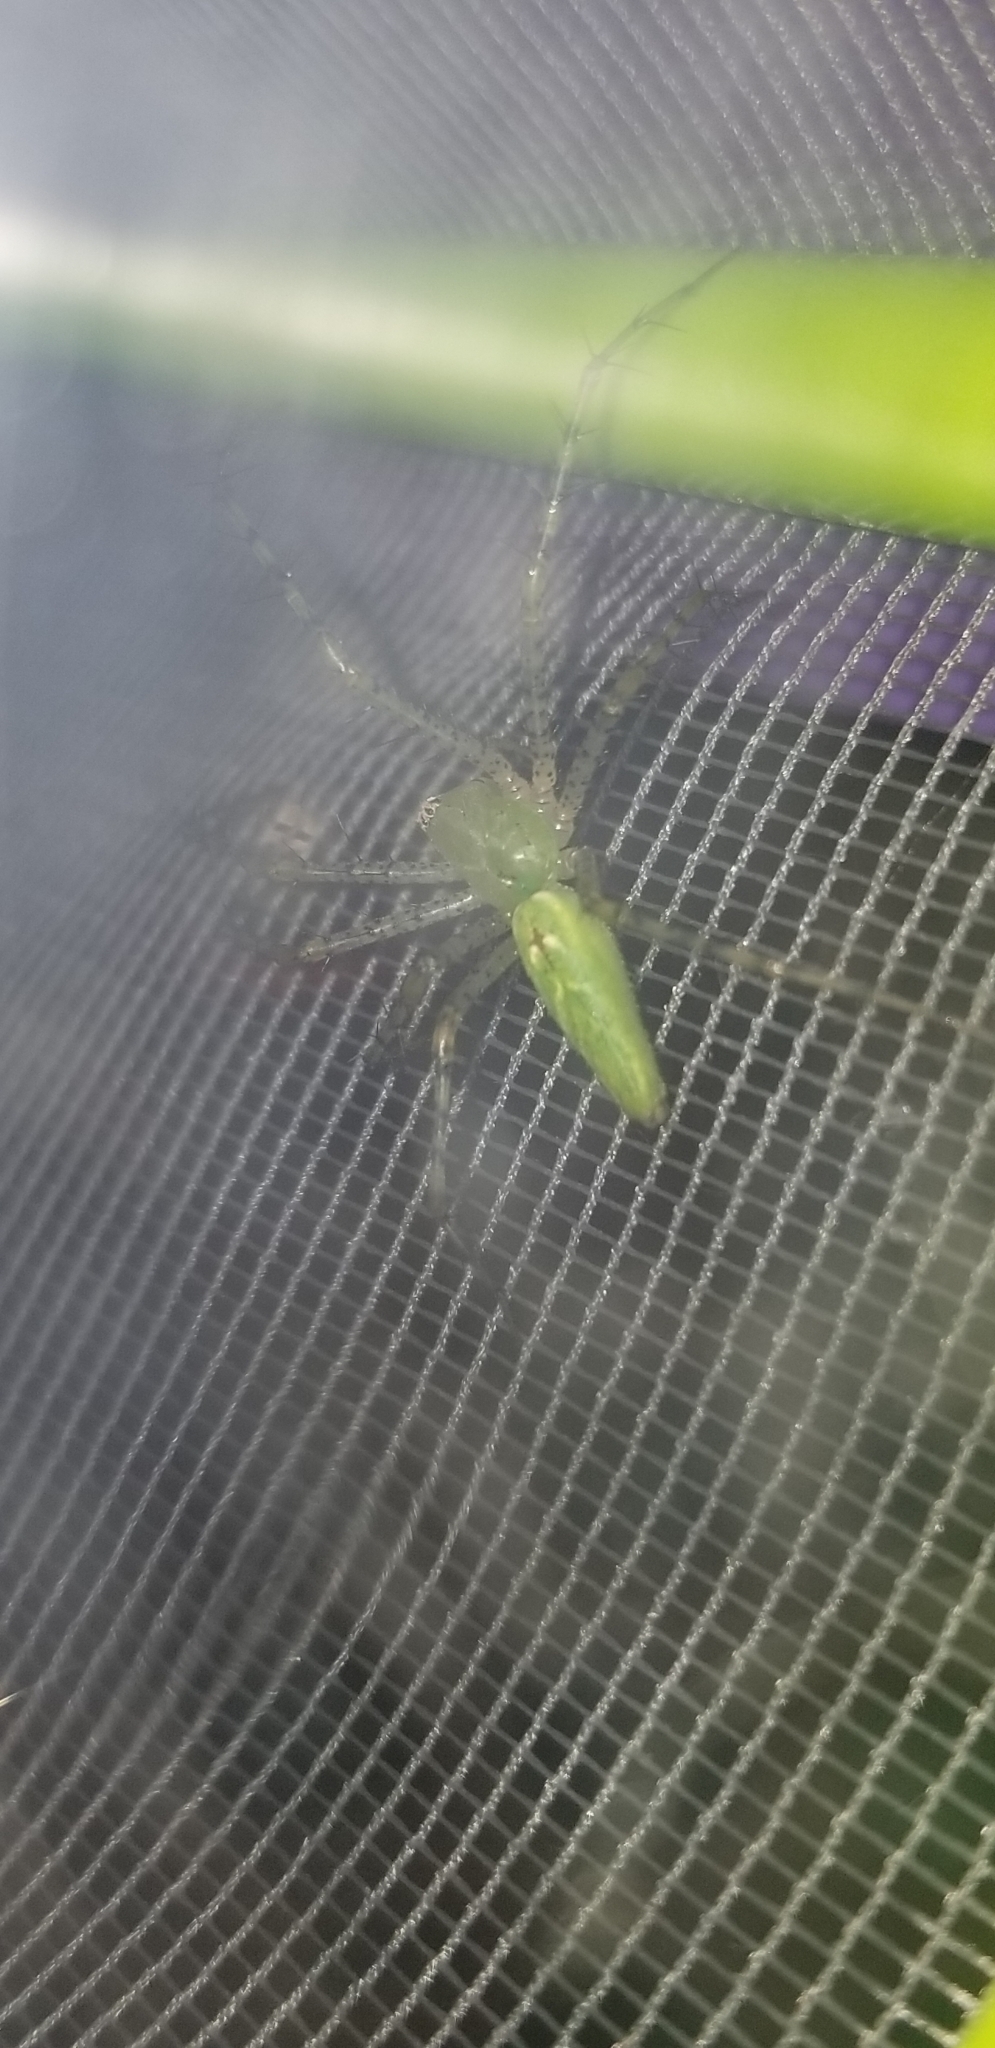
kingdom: Animalia
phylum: Arthropoda
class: Arachnida
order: Araneae
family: Oxyopidae
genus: Peucetia
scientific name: Peucetia viridans
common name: Lynx spiders
